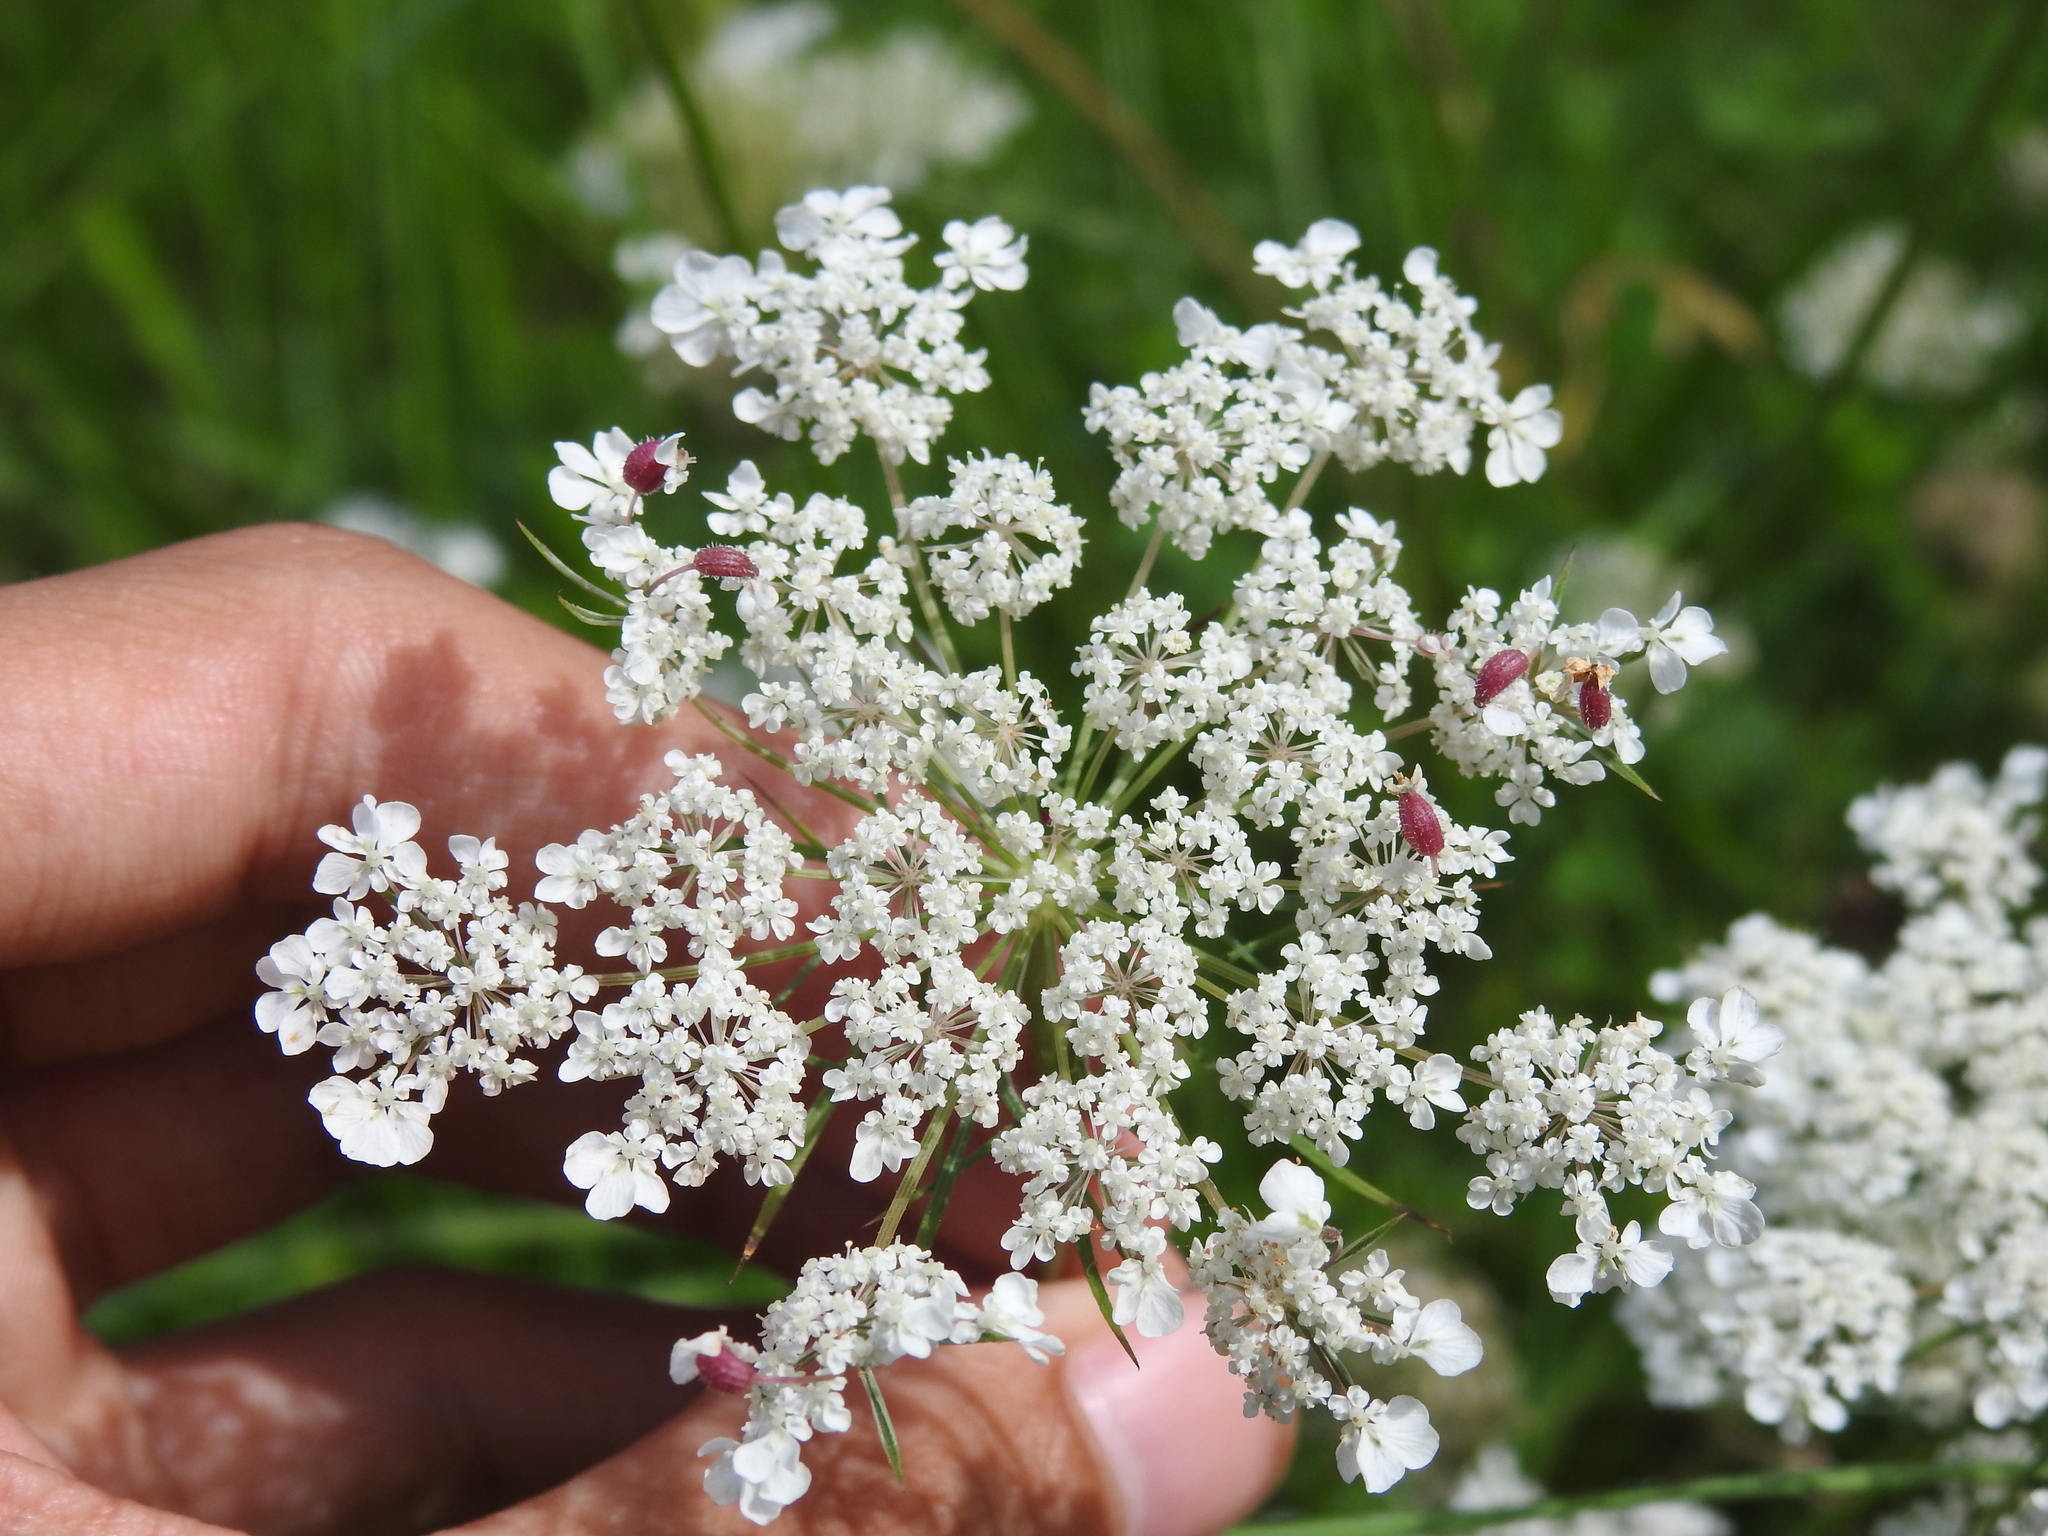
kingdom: Animalia
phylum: Arthropoda
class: Insecta
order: Diptera
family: Cecidomyiidae
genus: Kiefferia
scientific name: Kiefferia pericarpiicola
